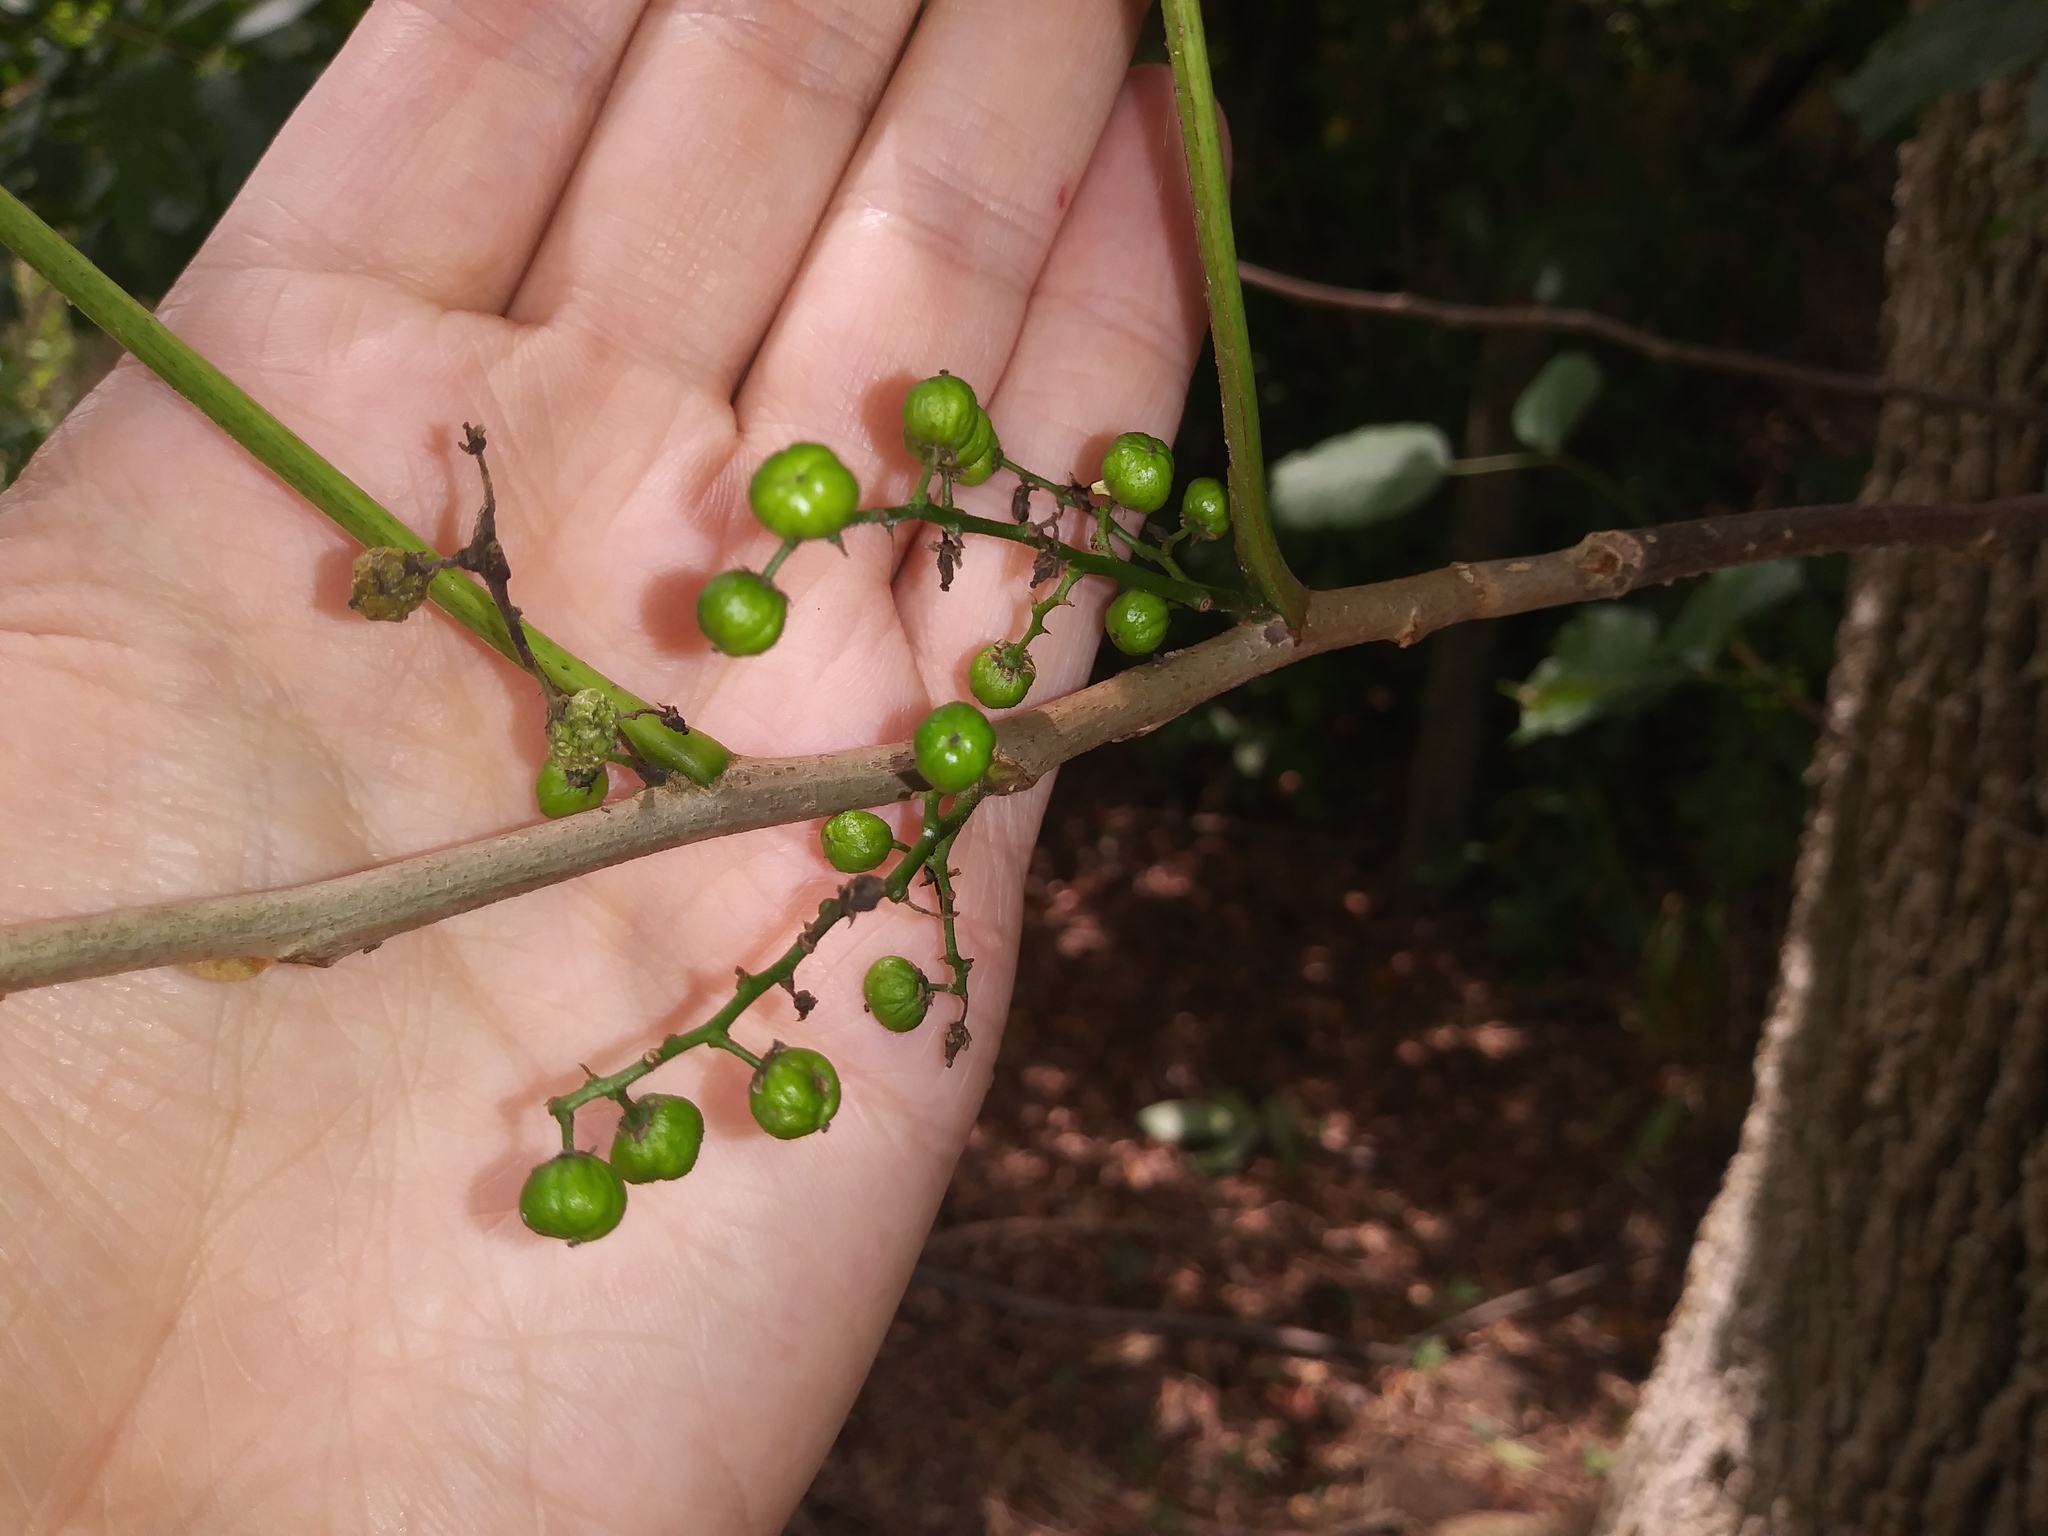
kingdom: Plantae
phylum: Tracheophyta
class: Magnoliopsida
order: Sapindales
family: Anacardiaceae
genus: Toxicodendron
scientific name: Toxicodendron radicans
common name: Poison ivy
